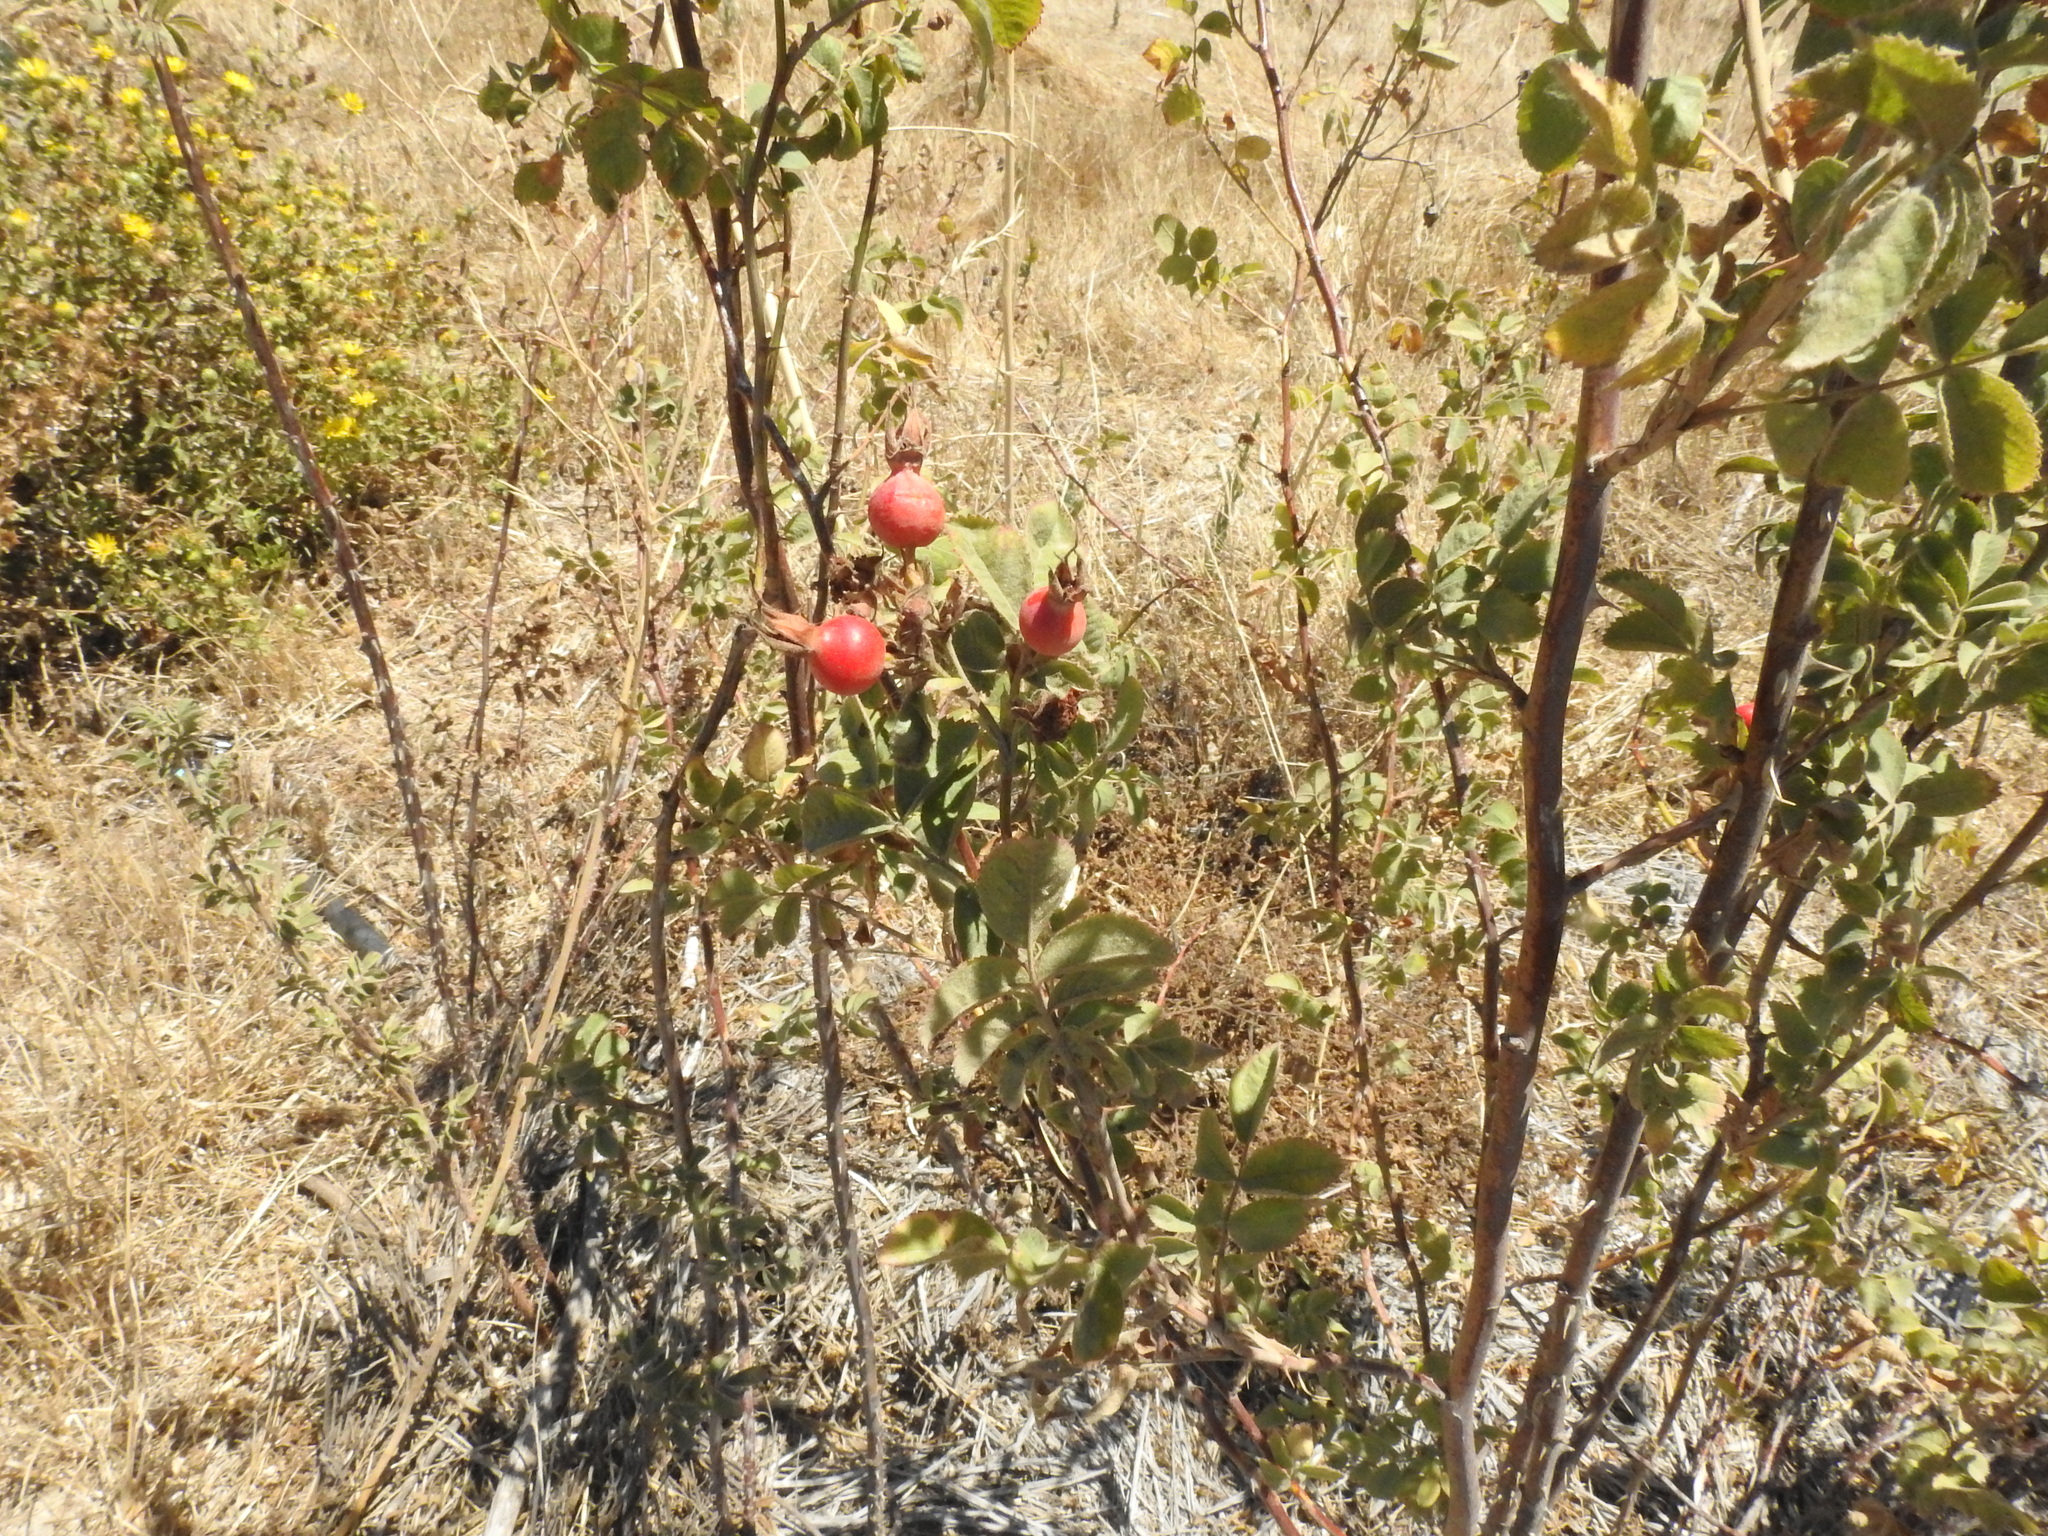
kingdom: Plantae
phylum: Tracheophyta
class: Magnoliopsida
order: Rosales
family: Rosaceae
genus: Rosa
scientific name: Rosa californica
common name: California rose
